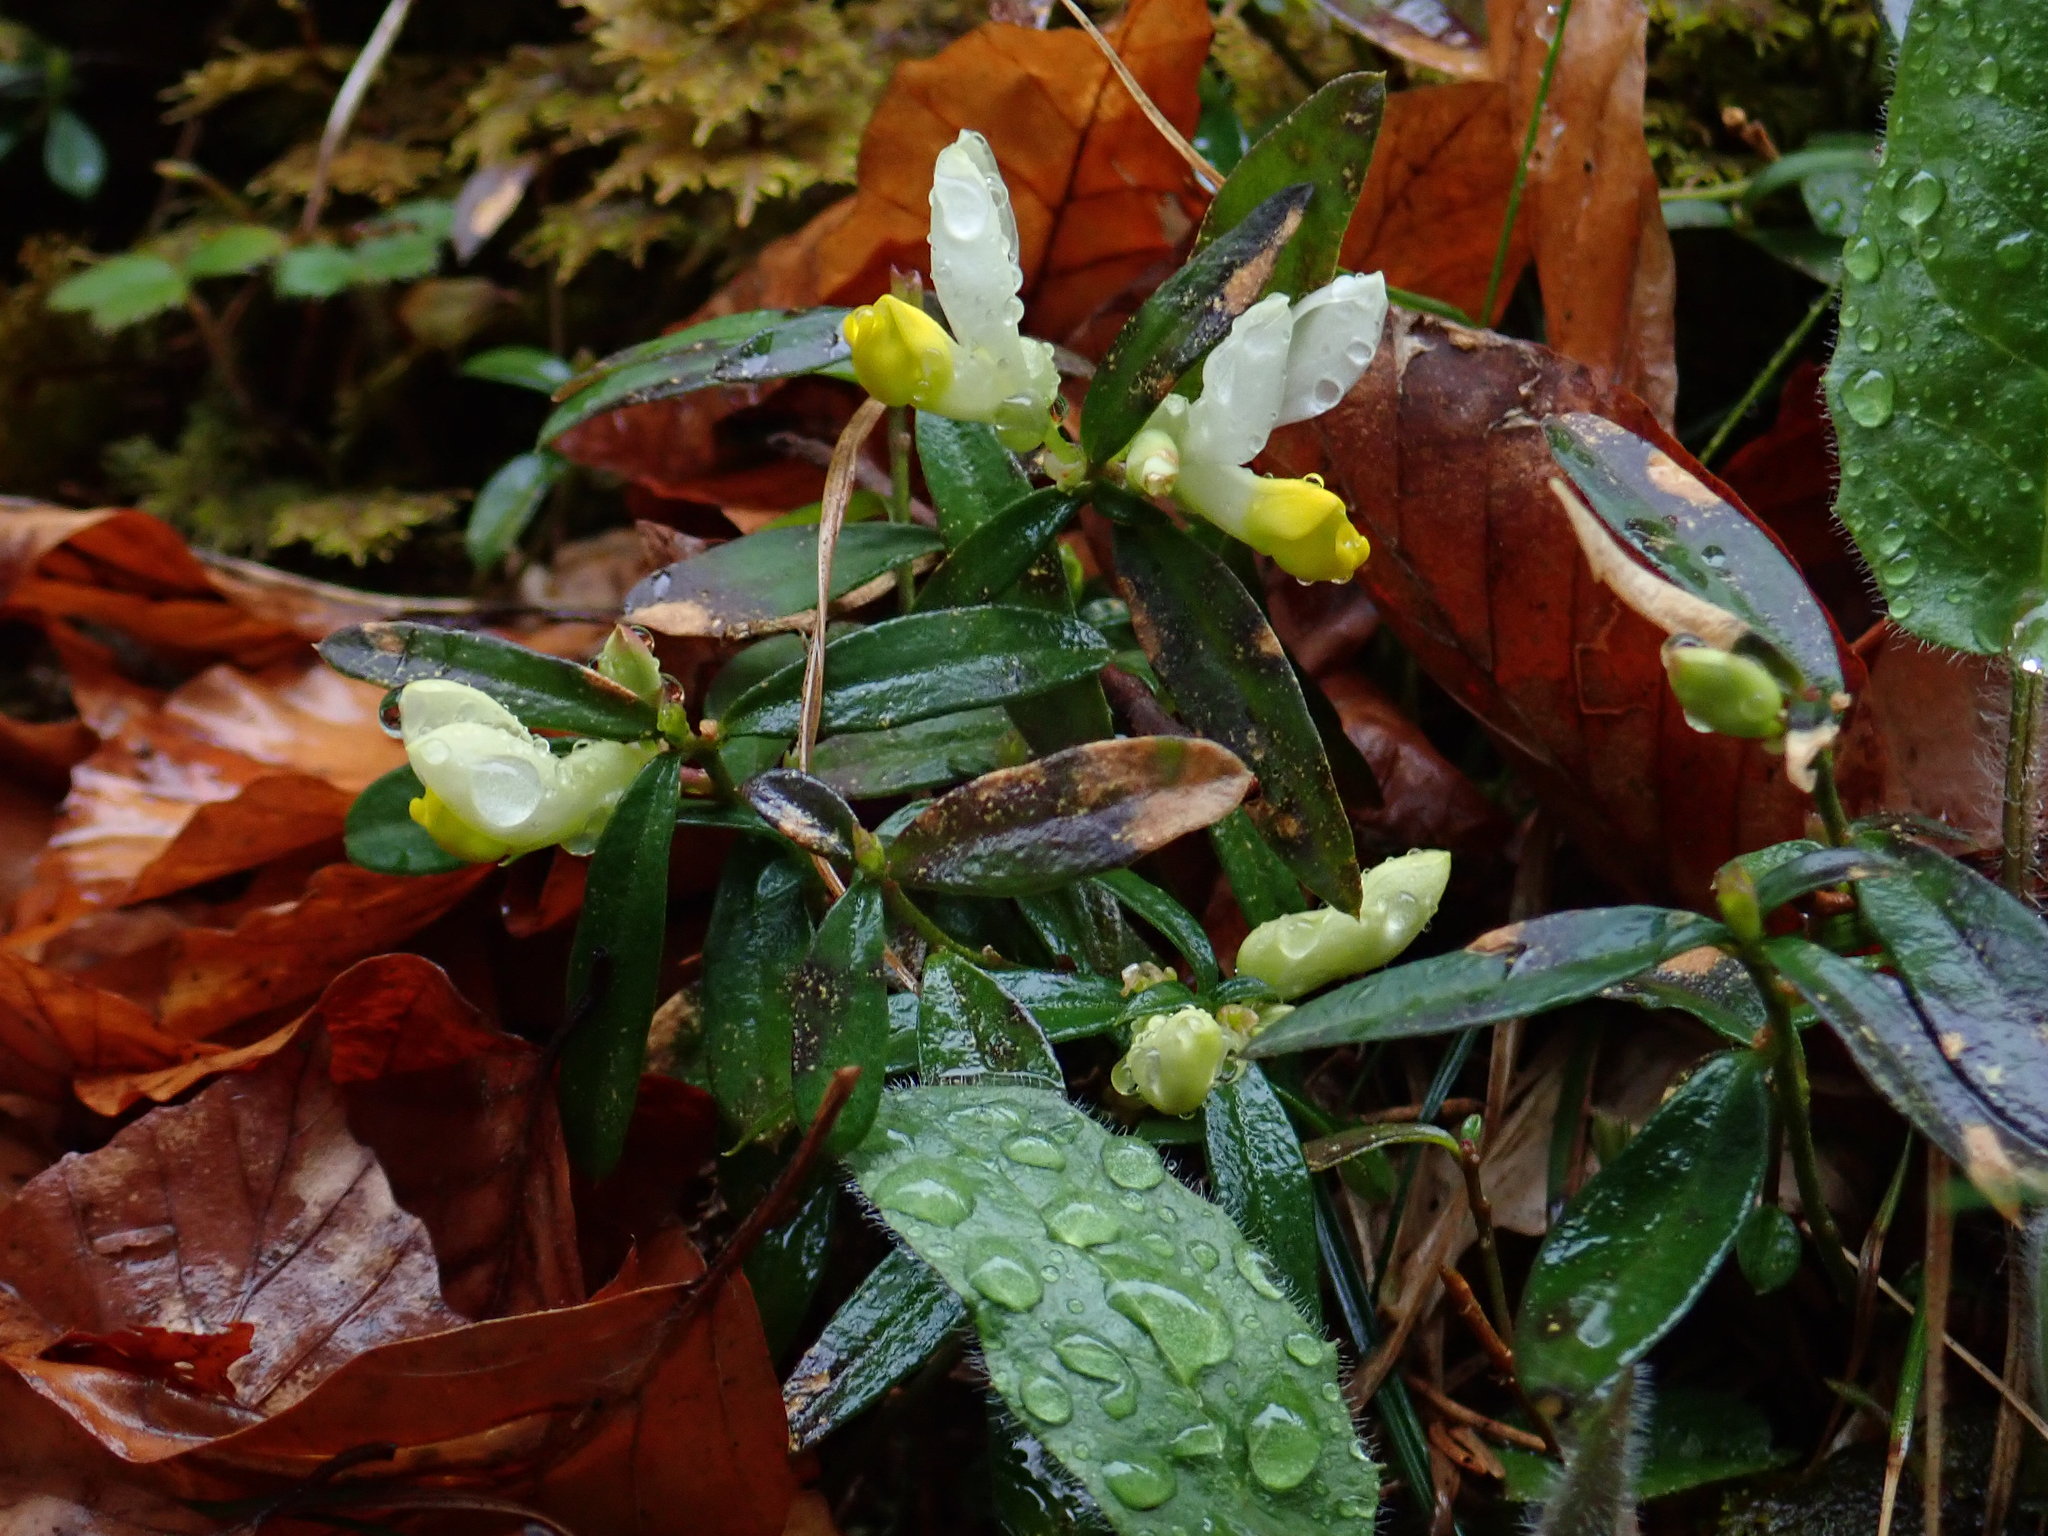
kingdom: Plantae
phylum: Tracheophyta
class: Magnoliopsida
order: Fabales
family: Polygalaceae
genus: Polygaloides
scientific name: Polygaloides chamaebuxus
